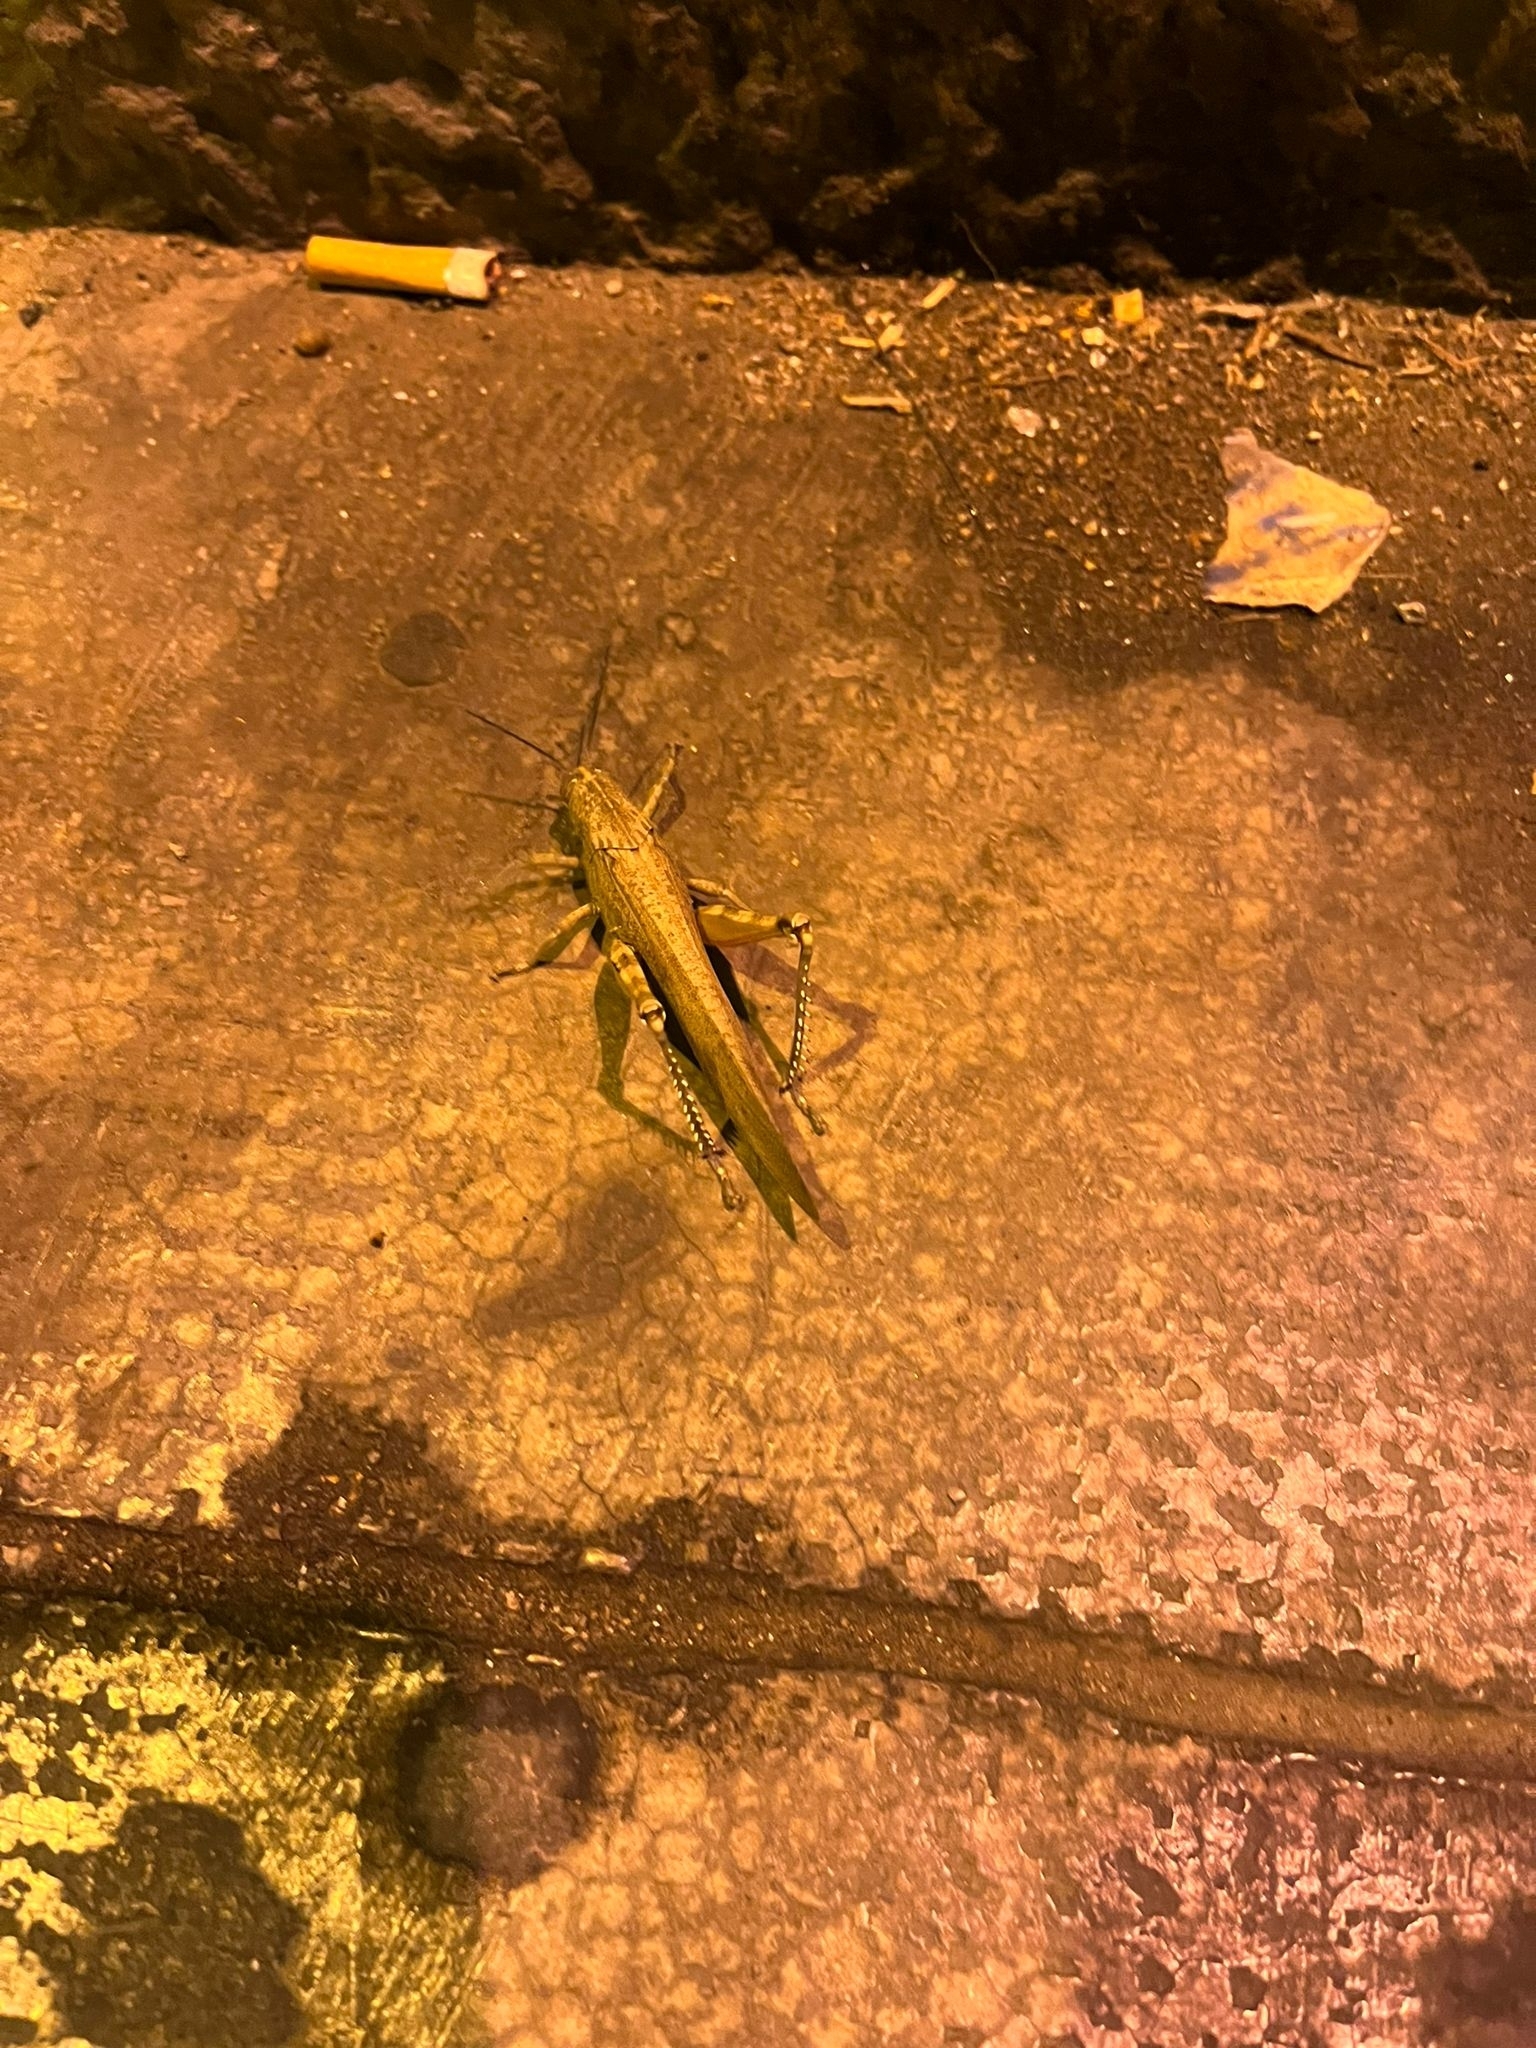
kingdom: Animalia
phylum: Arthropoda
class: Insecta
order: Orthoptera
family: Acrididae
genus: Anacridium
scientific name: Anacridium aegyptium
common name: Egyptian grasshopper
